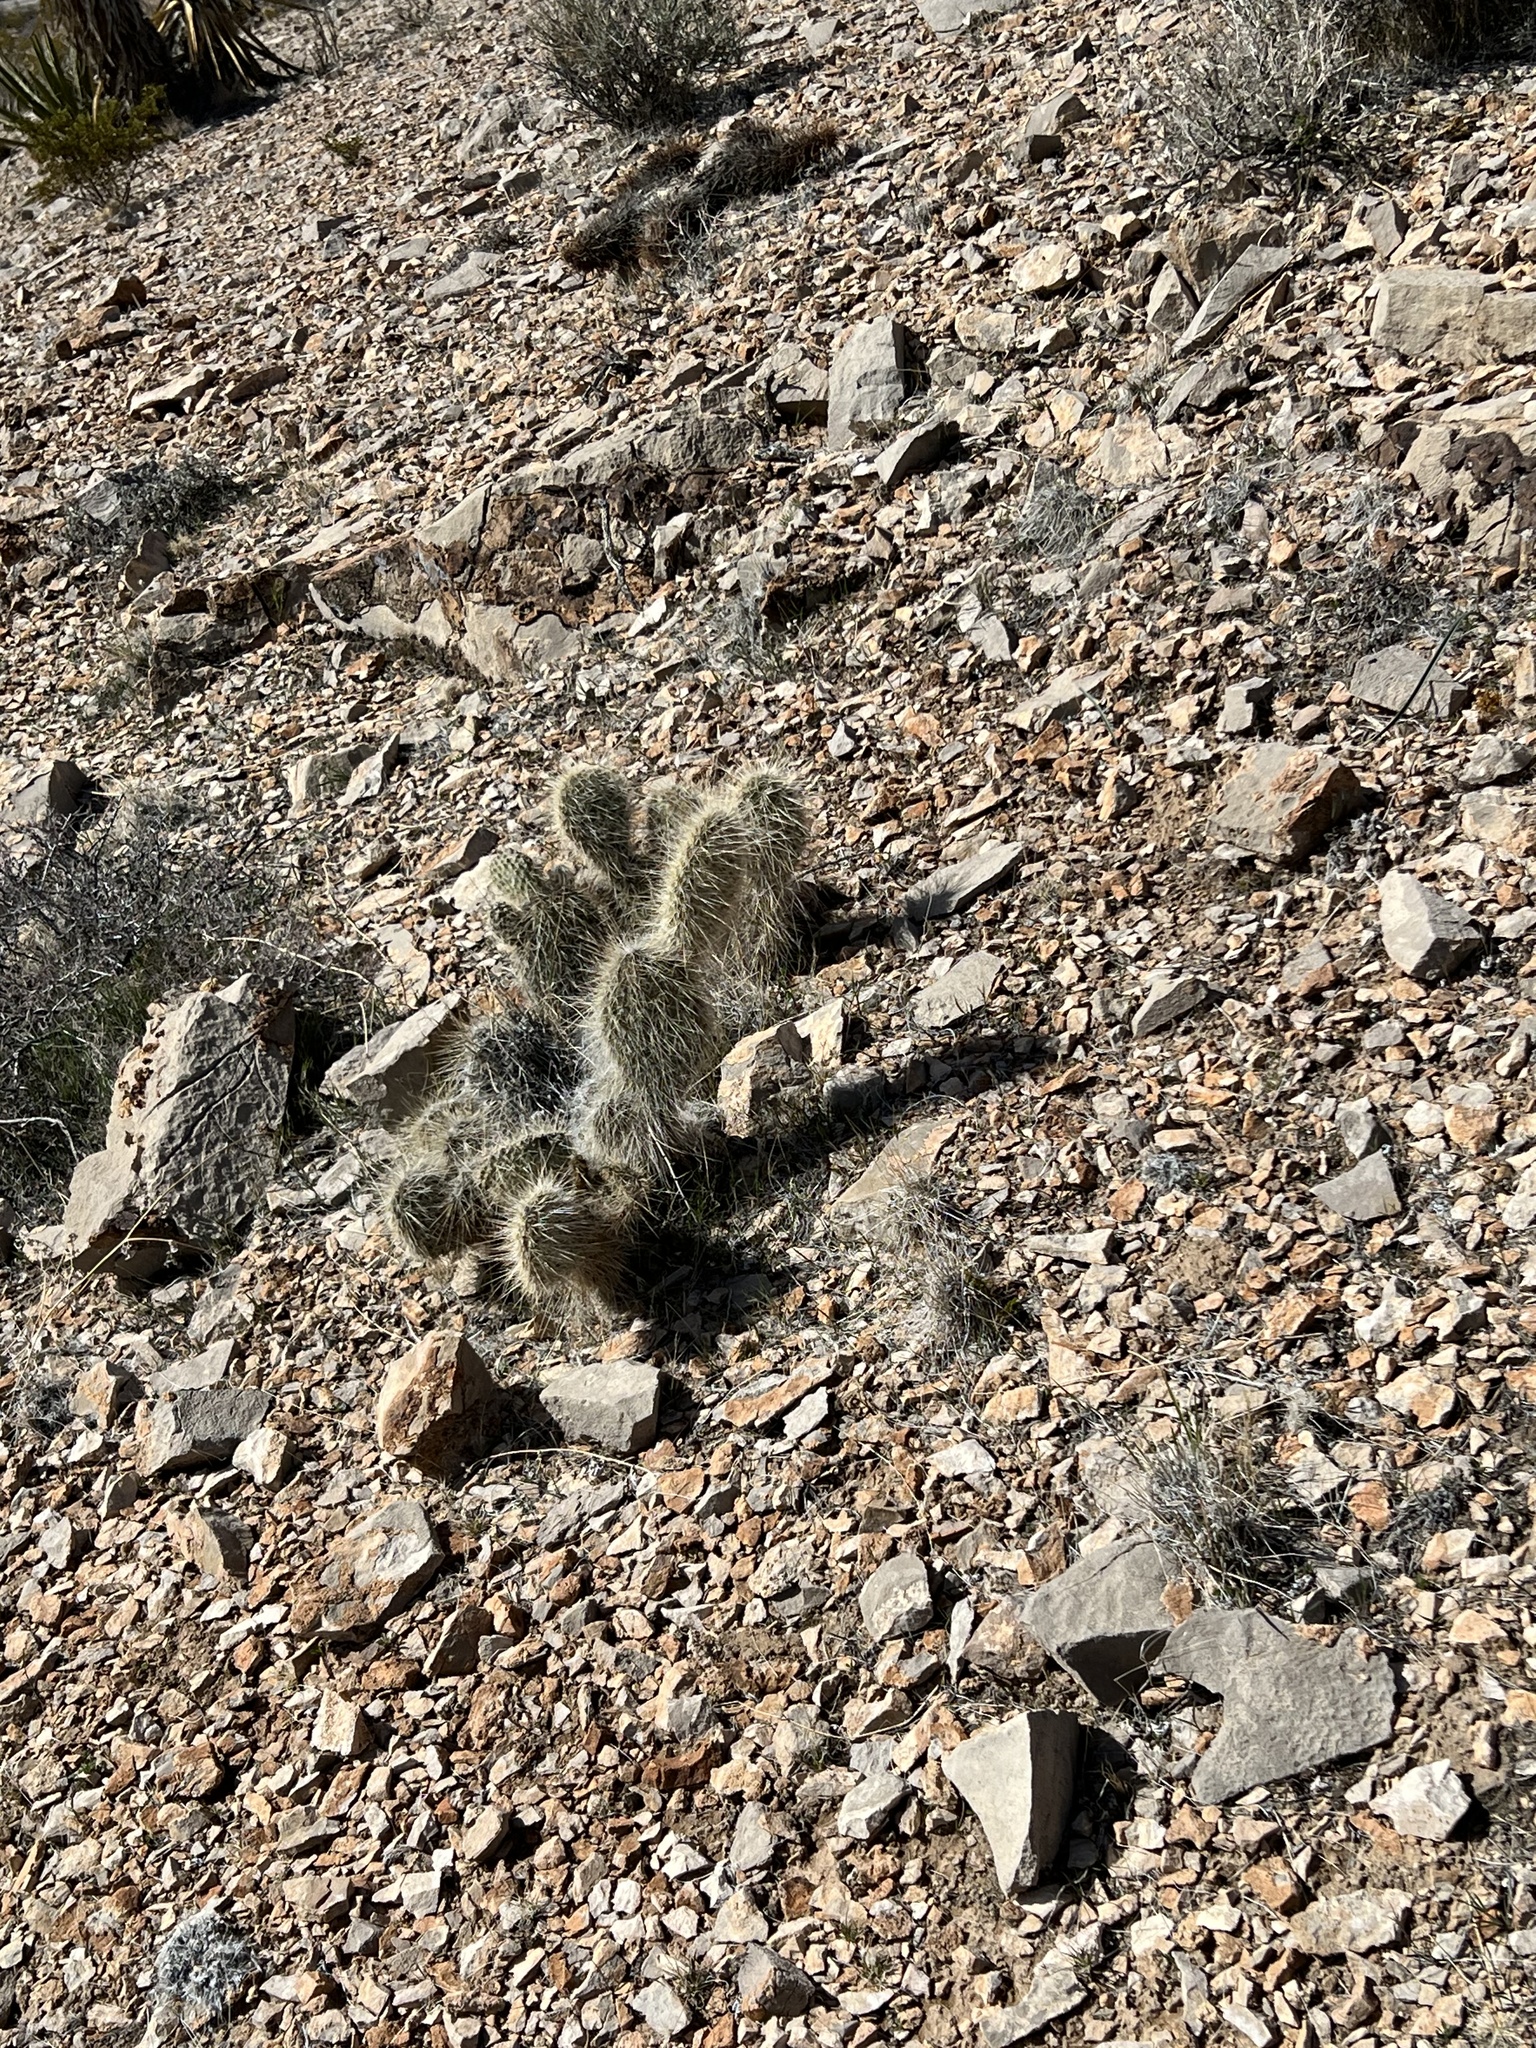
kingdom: Plantae
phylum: Tracheophyta
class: Magnoliopsida
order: Caryophyllales
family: Cactaceae
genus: Opuntia
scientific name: Opuntia polyacantha
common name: Plains prickly-pear
